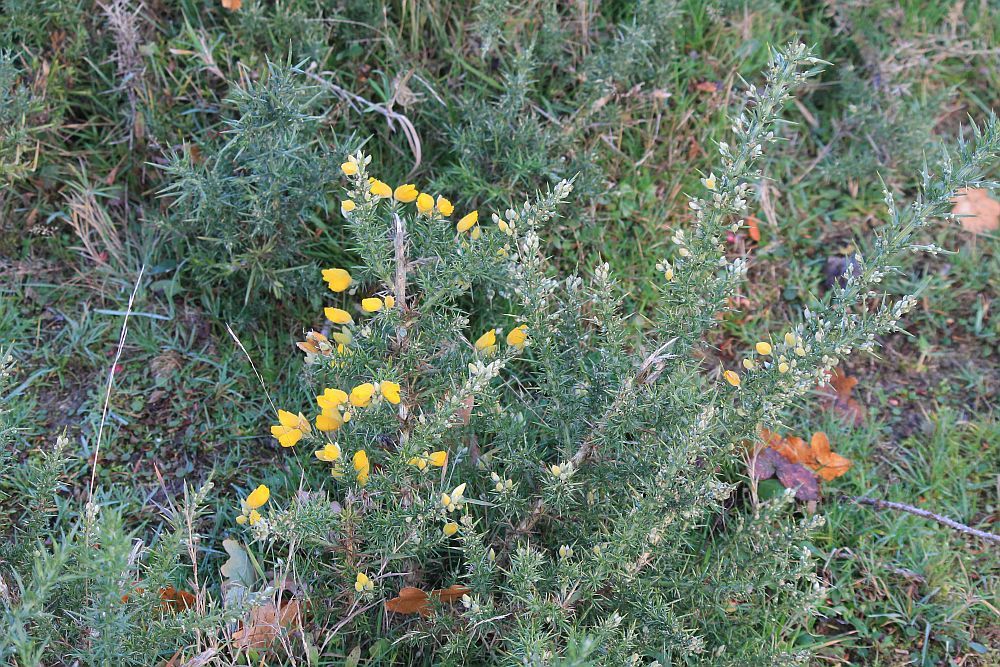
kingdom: Plantae
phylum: Tracheophyta
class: Magnoliopsida
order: Fabales
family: Fabaceae
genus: Ulex
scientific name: Ulex europaeus
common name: Common gorse
